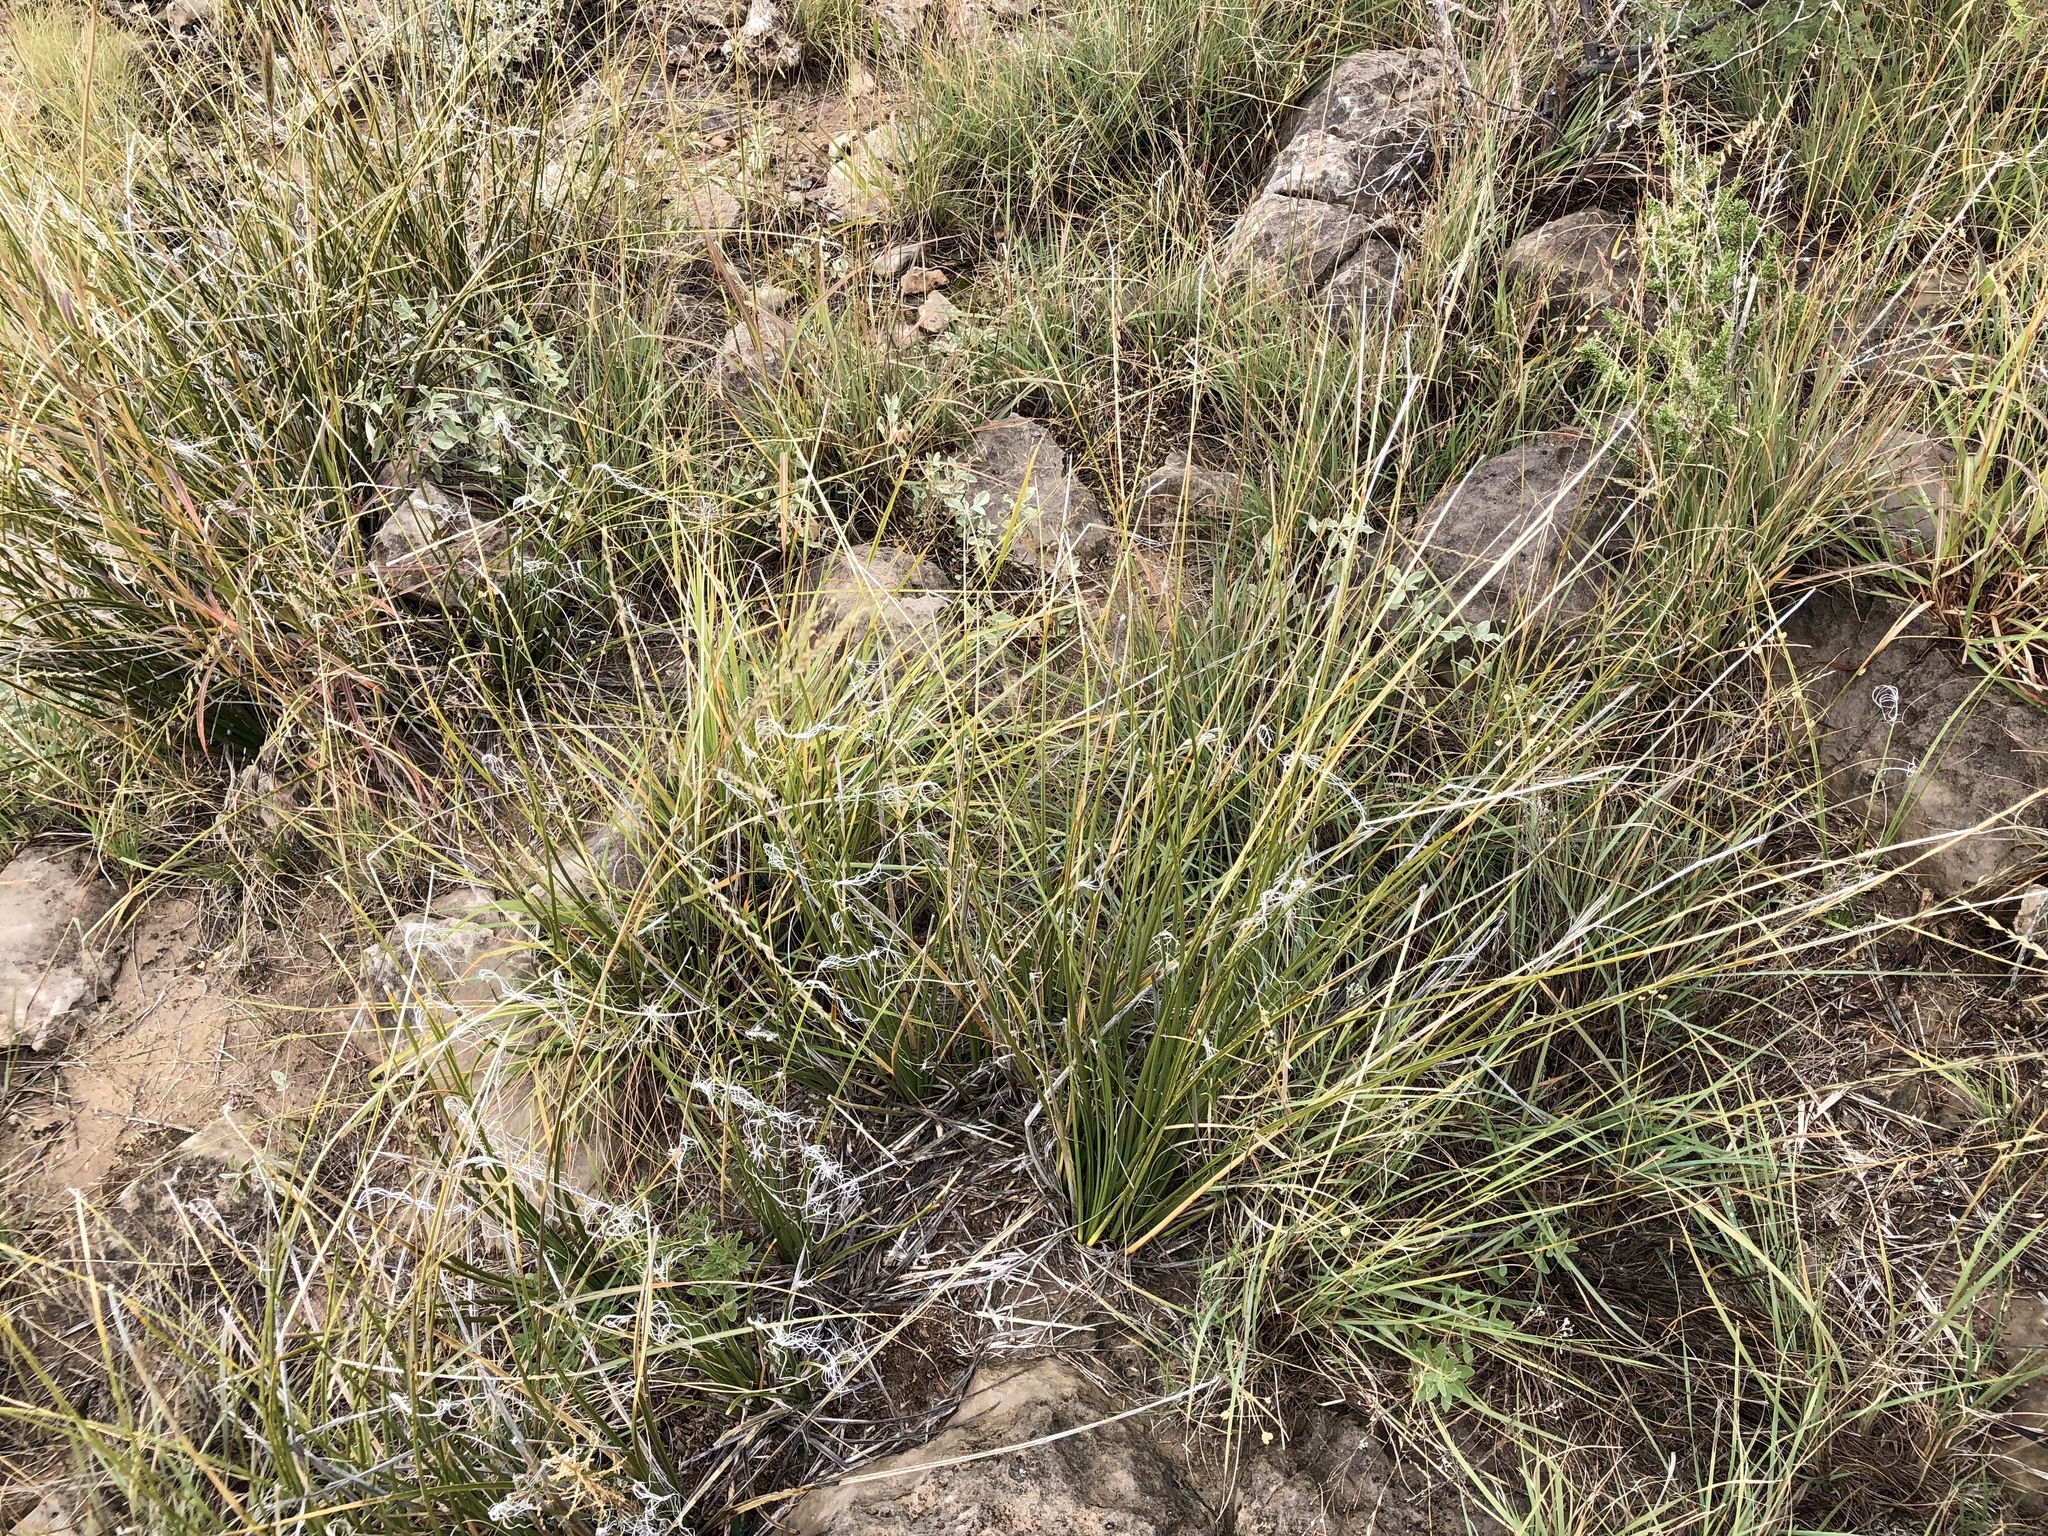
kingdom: Plantae
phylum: Tracheophyta
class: Liliopsida
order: Asparagales
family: Asparagaceae
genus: Nolina
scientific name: Nolina microcarpa
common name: Bear-grass
